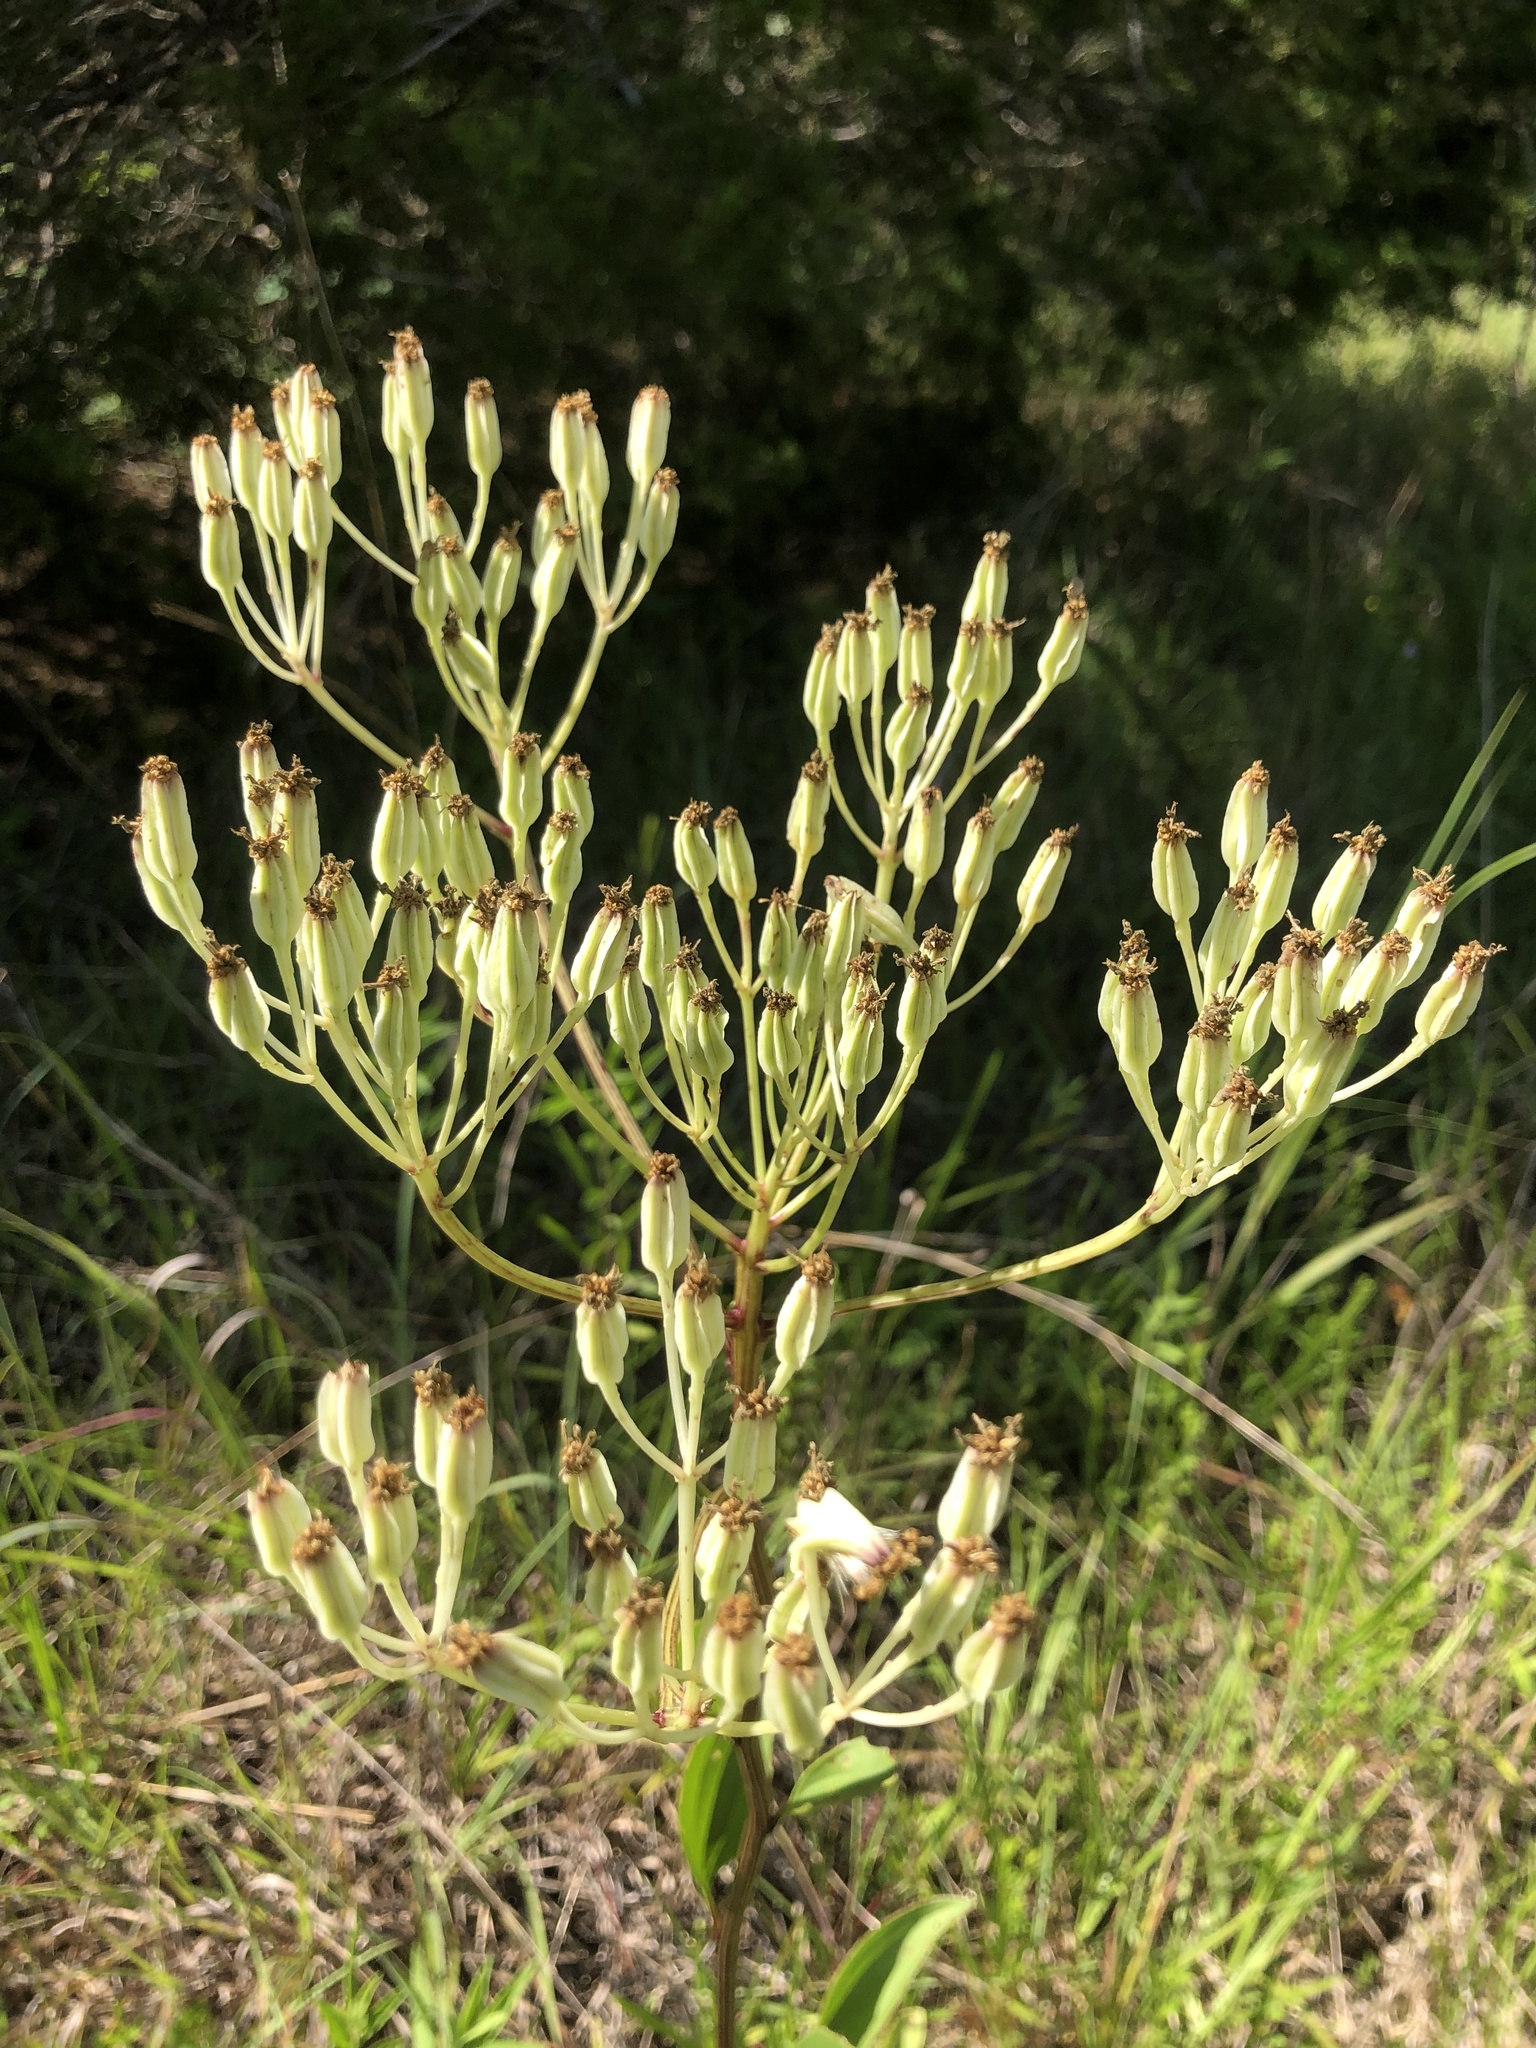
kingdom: Plantae
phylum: Tracheophyta
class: Magnoliopsida
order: Asterales
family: Asteraceae
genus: Arnoglossum
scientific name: Arnoglossum plantagineum
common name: Groove-stemmed indian-plantain
